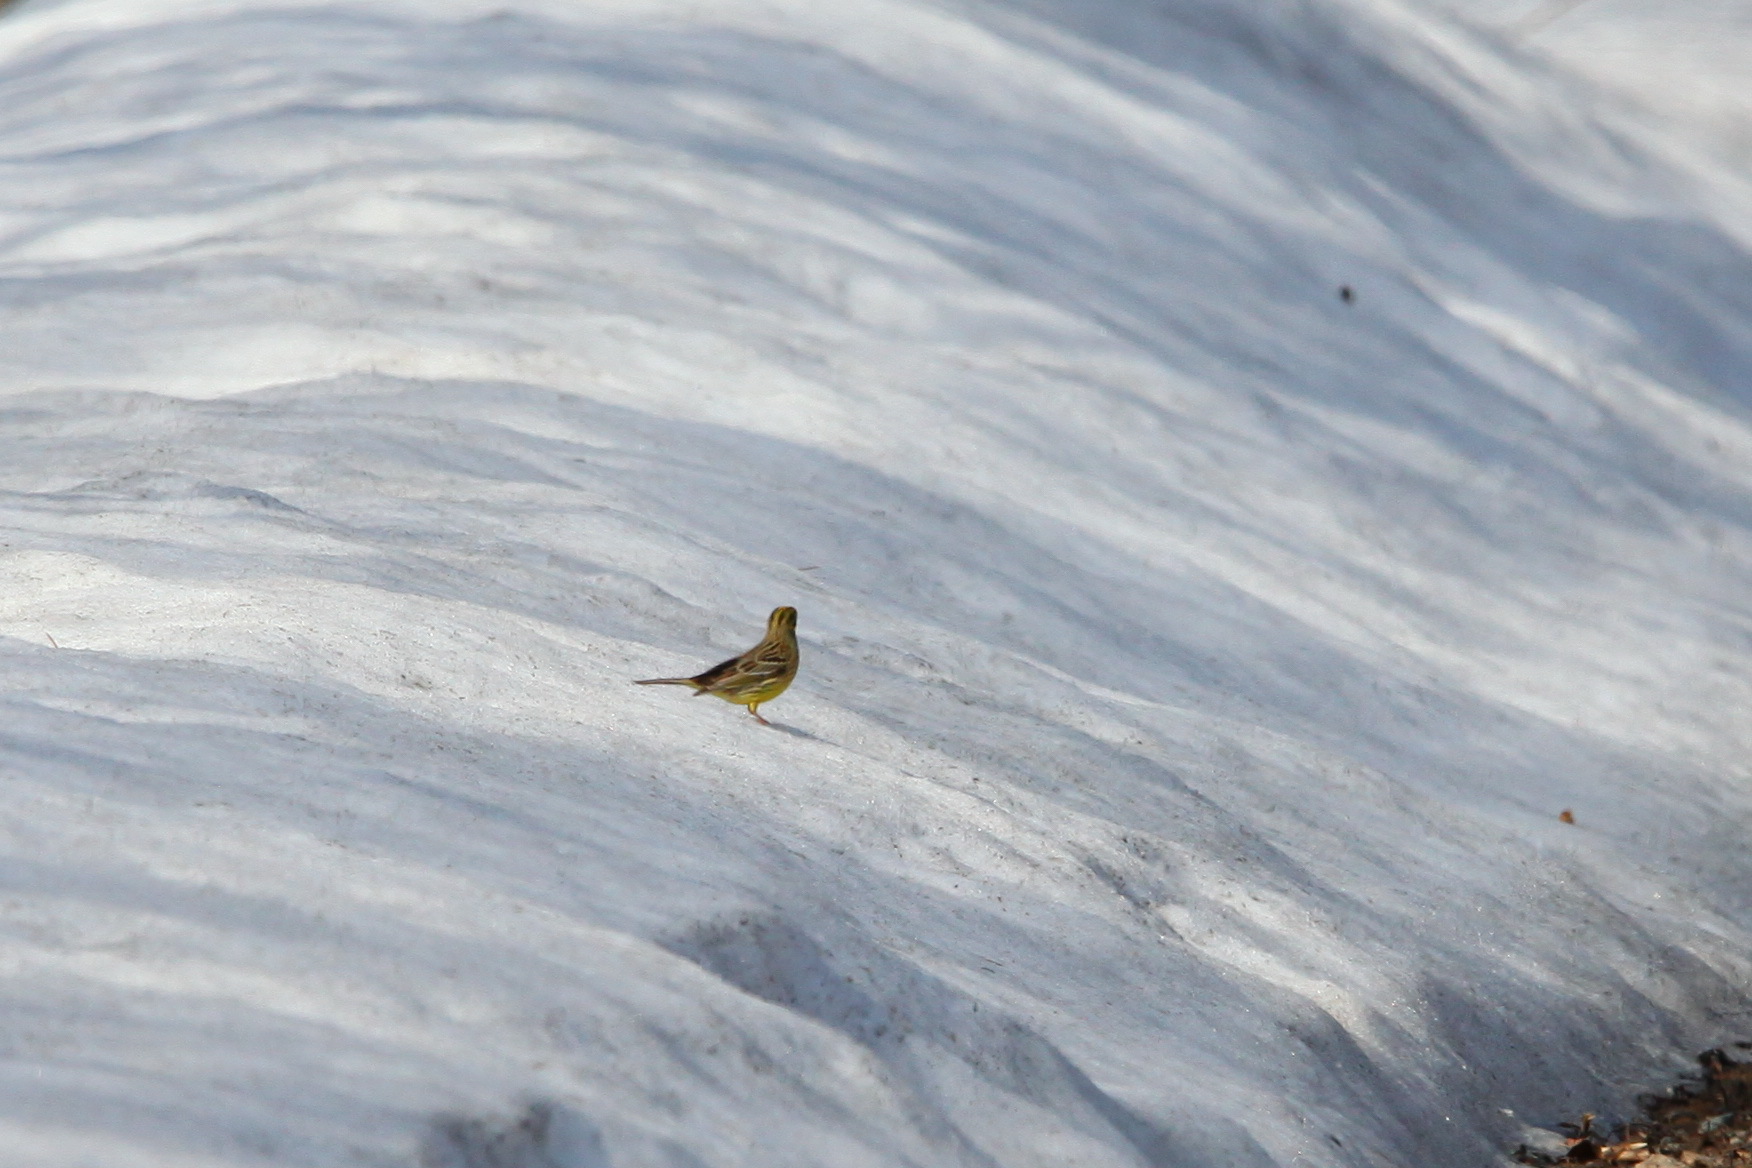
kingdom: Animalia
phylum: Chordata
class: Aves
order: Passeriformes
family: Emberizidae
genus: Emberiza
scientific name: Emberiza citrinella
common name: Yellowhammer
